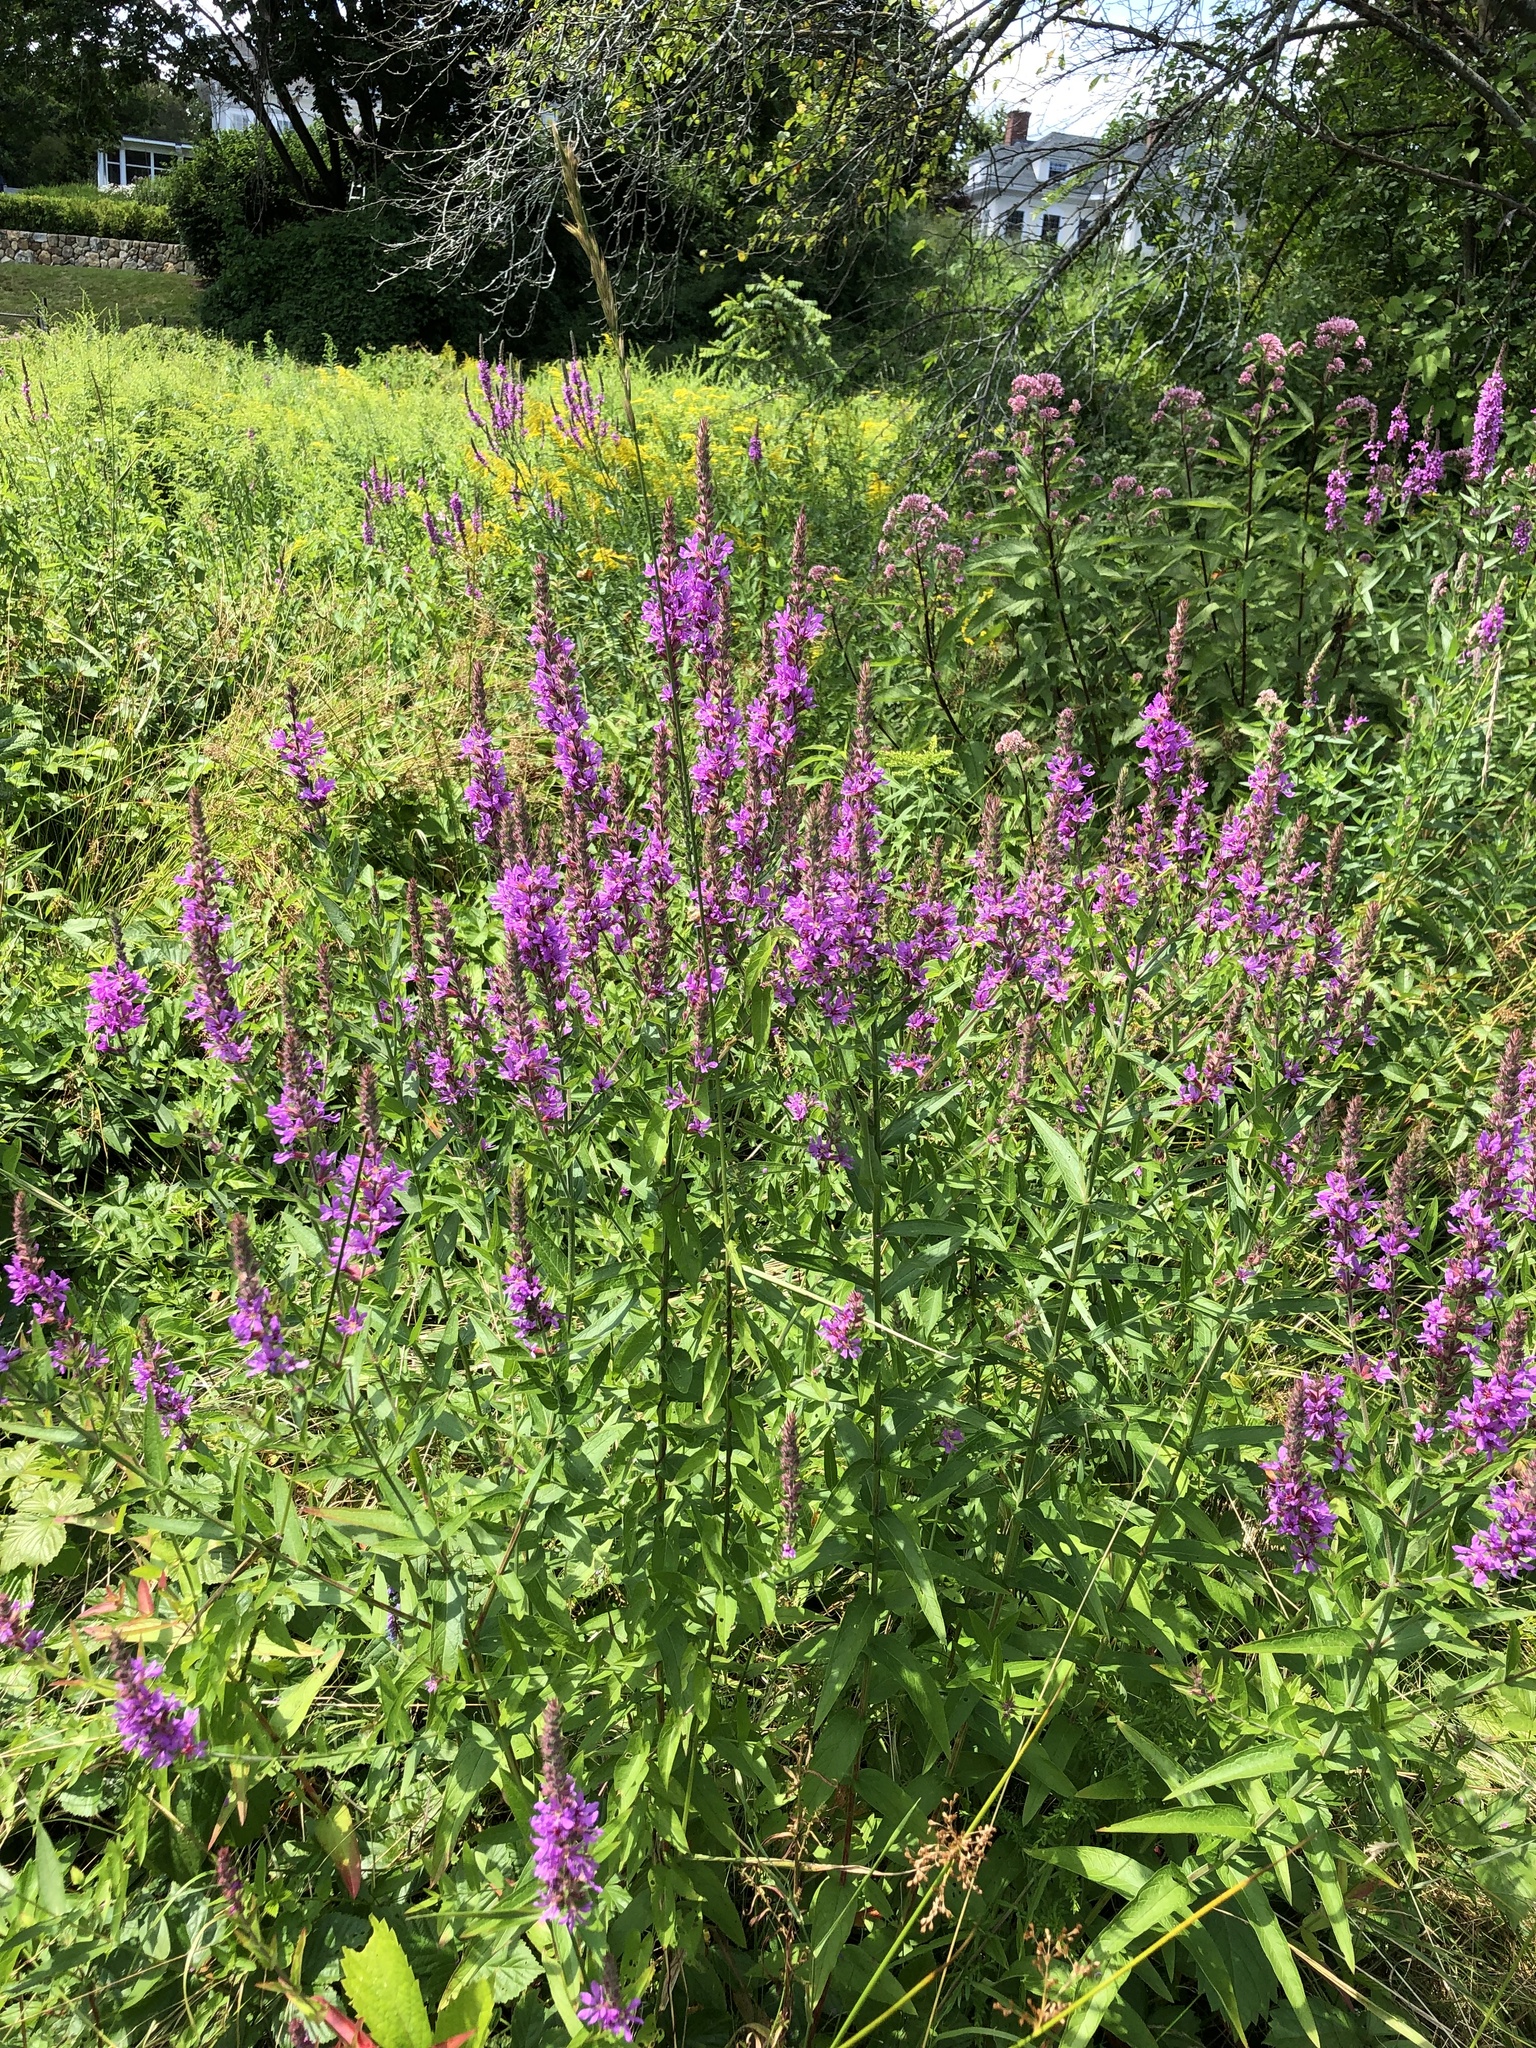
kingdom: Plantae
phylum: Tracheophyta
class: Magnoliopsida
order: Myrtales
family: Lythraceae
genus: Lythrum
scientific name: Lythrum salicaria
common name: Purple loosestrife
